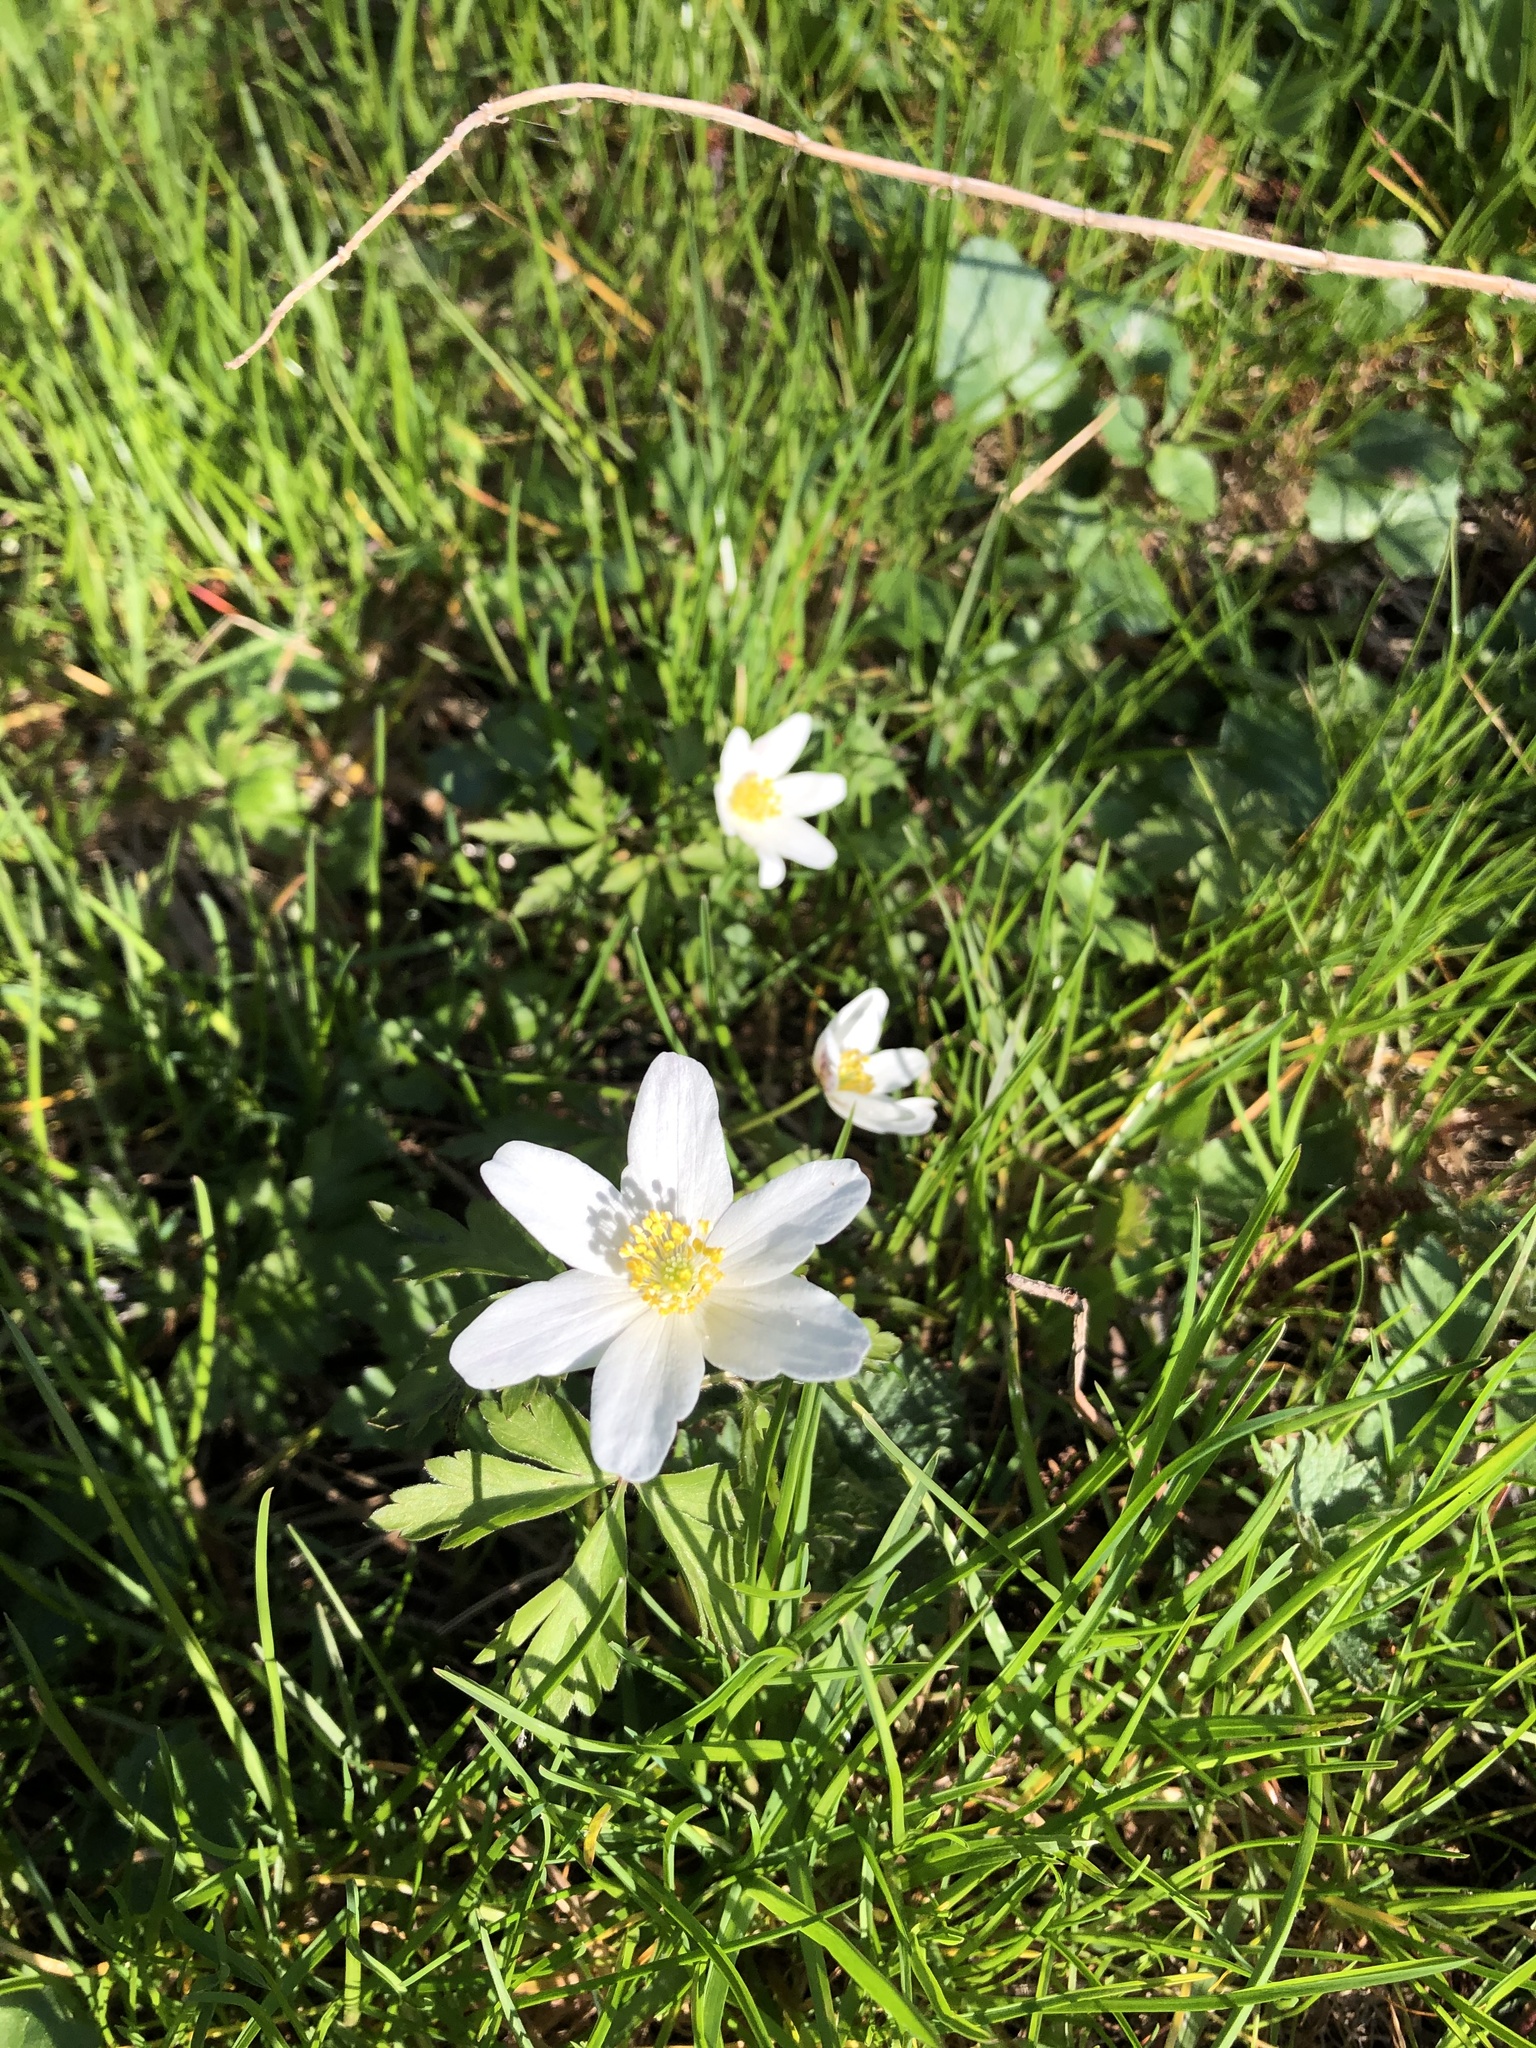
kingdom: Plantae
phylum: Tracheophyta
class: Magnoliopsida
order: Ranunculales
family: Ranunculaceae
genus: Anemone
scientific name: Anemone nemorosa
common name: Wood anemone
